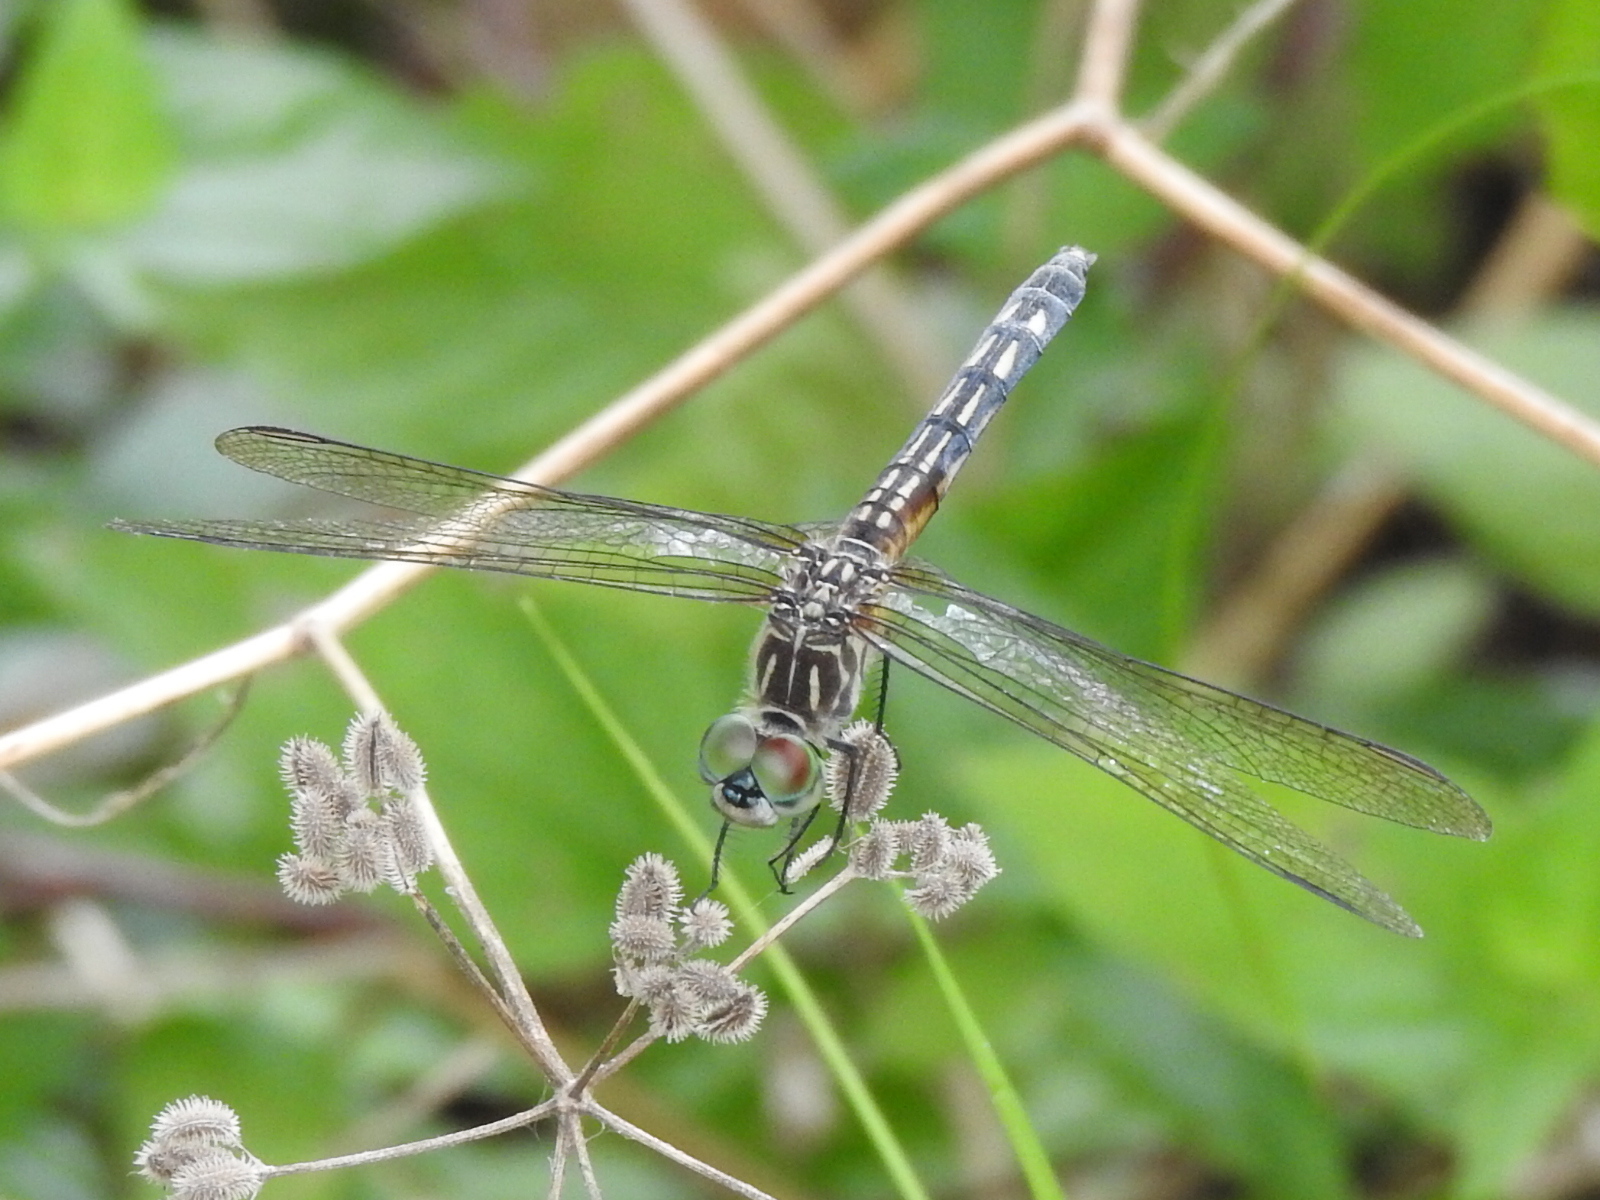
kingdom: Animalia
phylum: Arthropoda
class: Insecta
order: Odonata
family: Libellulidae
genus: Pachydiplax
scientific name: Pachydiplax longipennis
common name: Blue dasher
